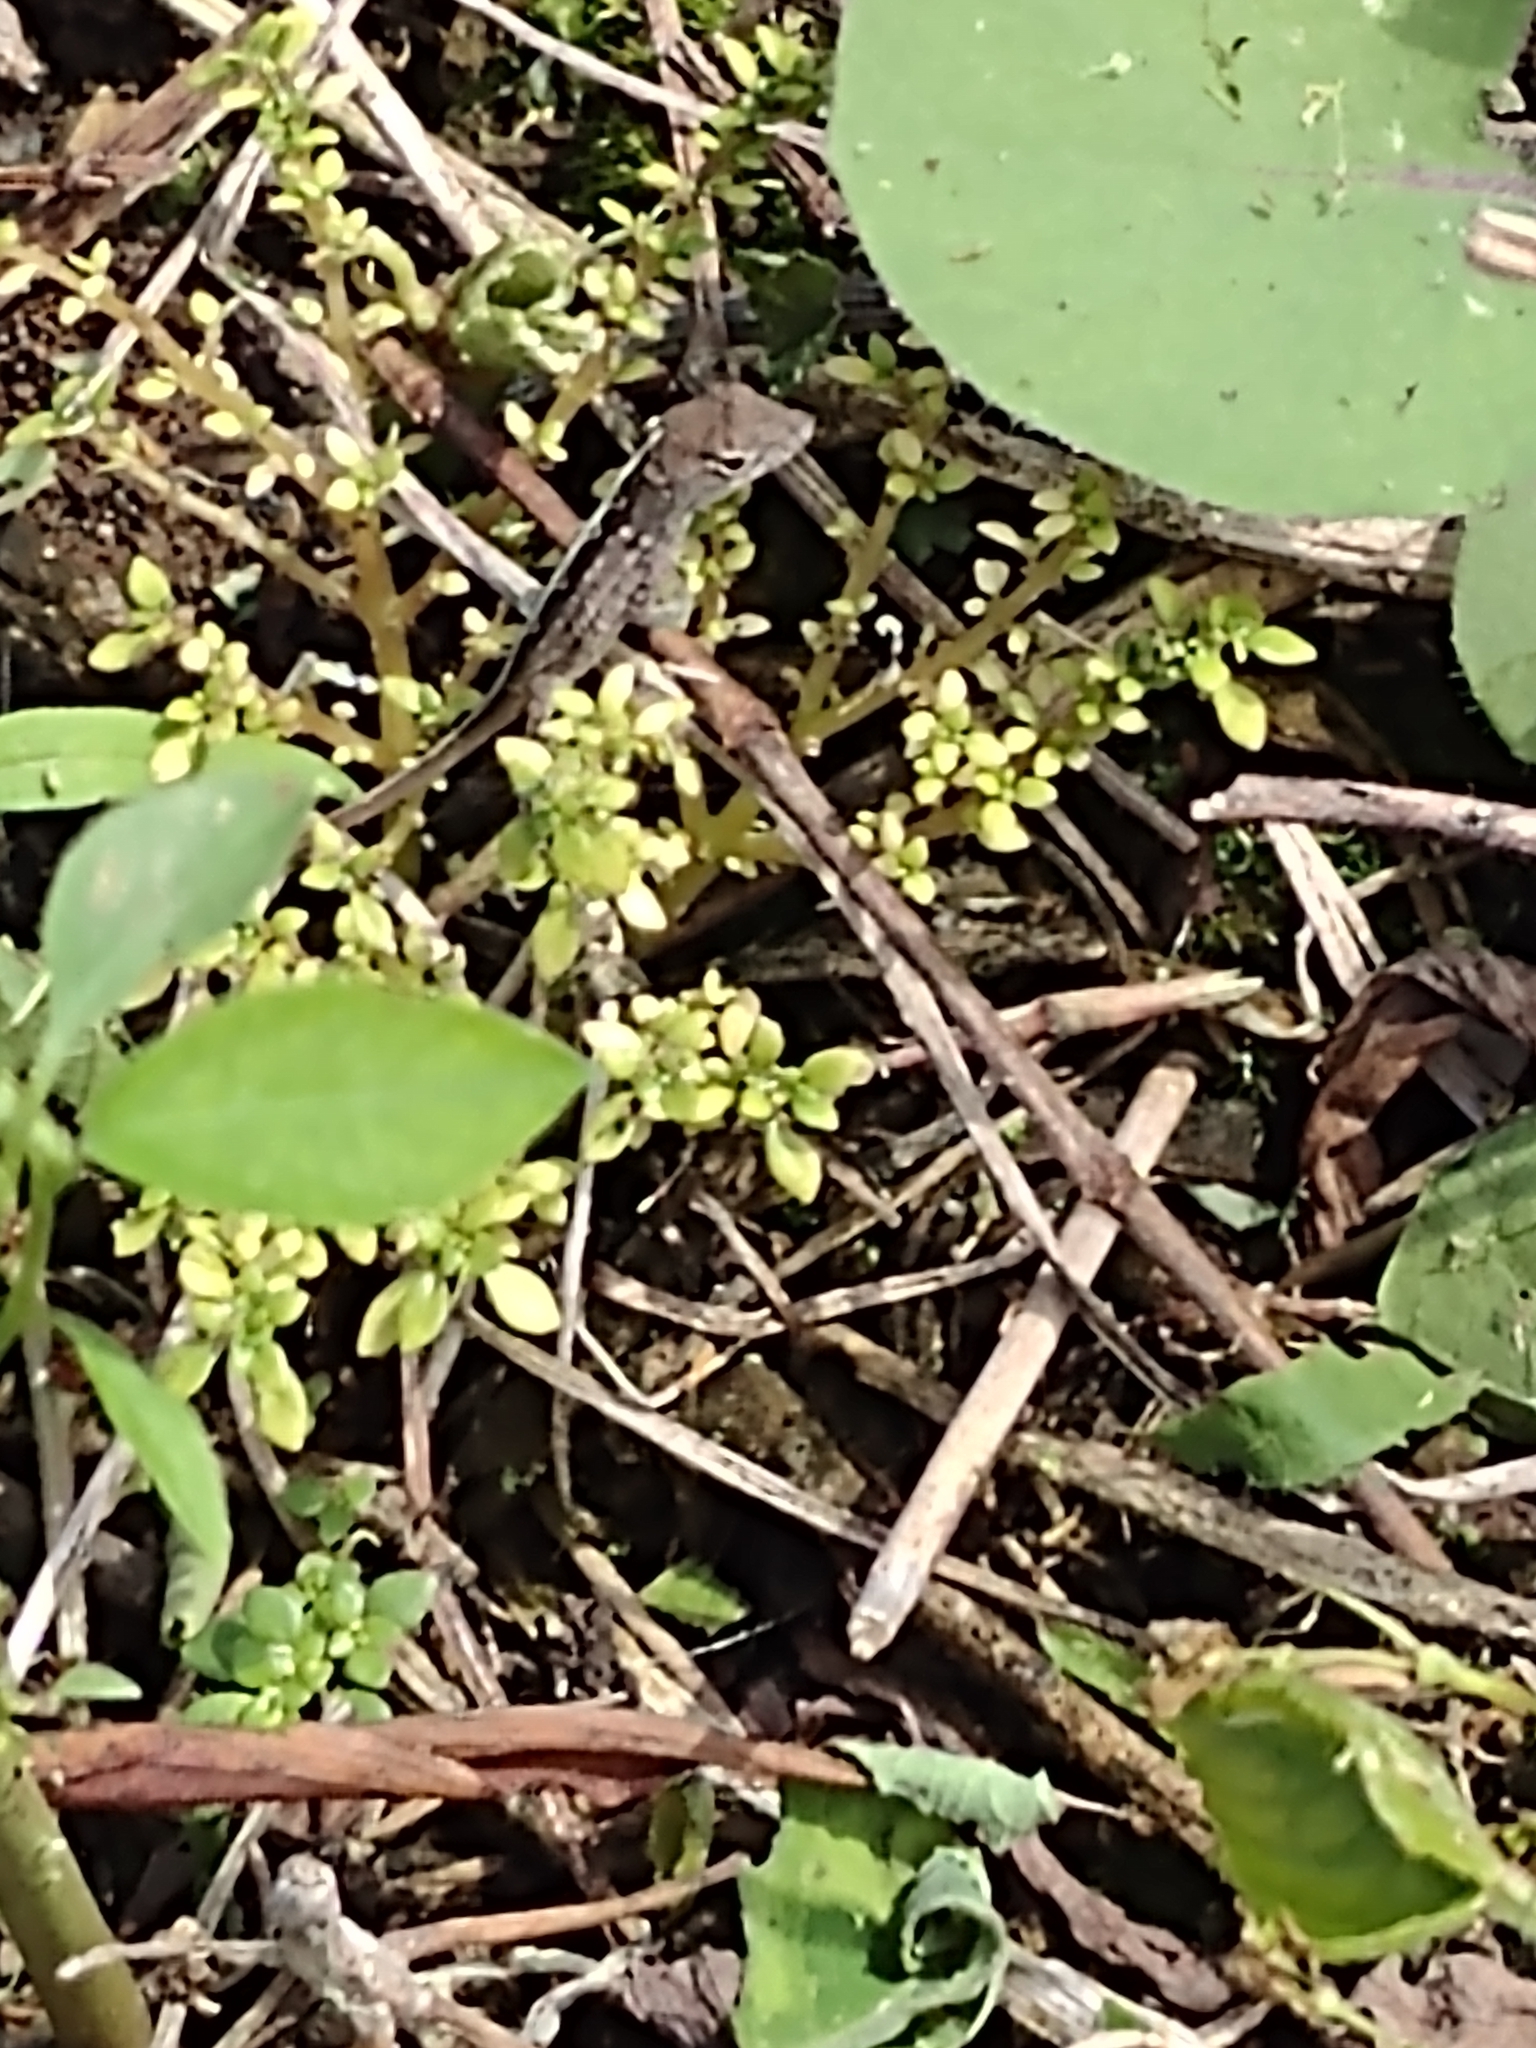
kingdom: Animalia
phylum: Chordata
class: Squamata
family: Dactyloidae
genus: Anolis
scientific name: Anolis sagrei
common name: Brown anole
